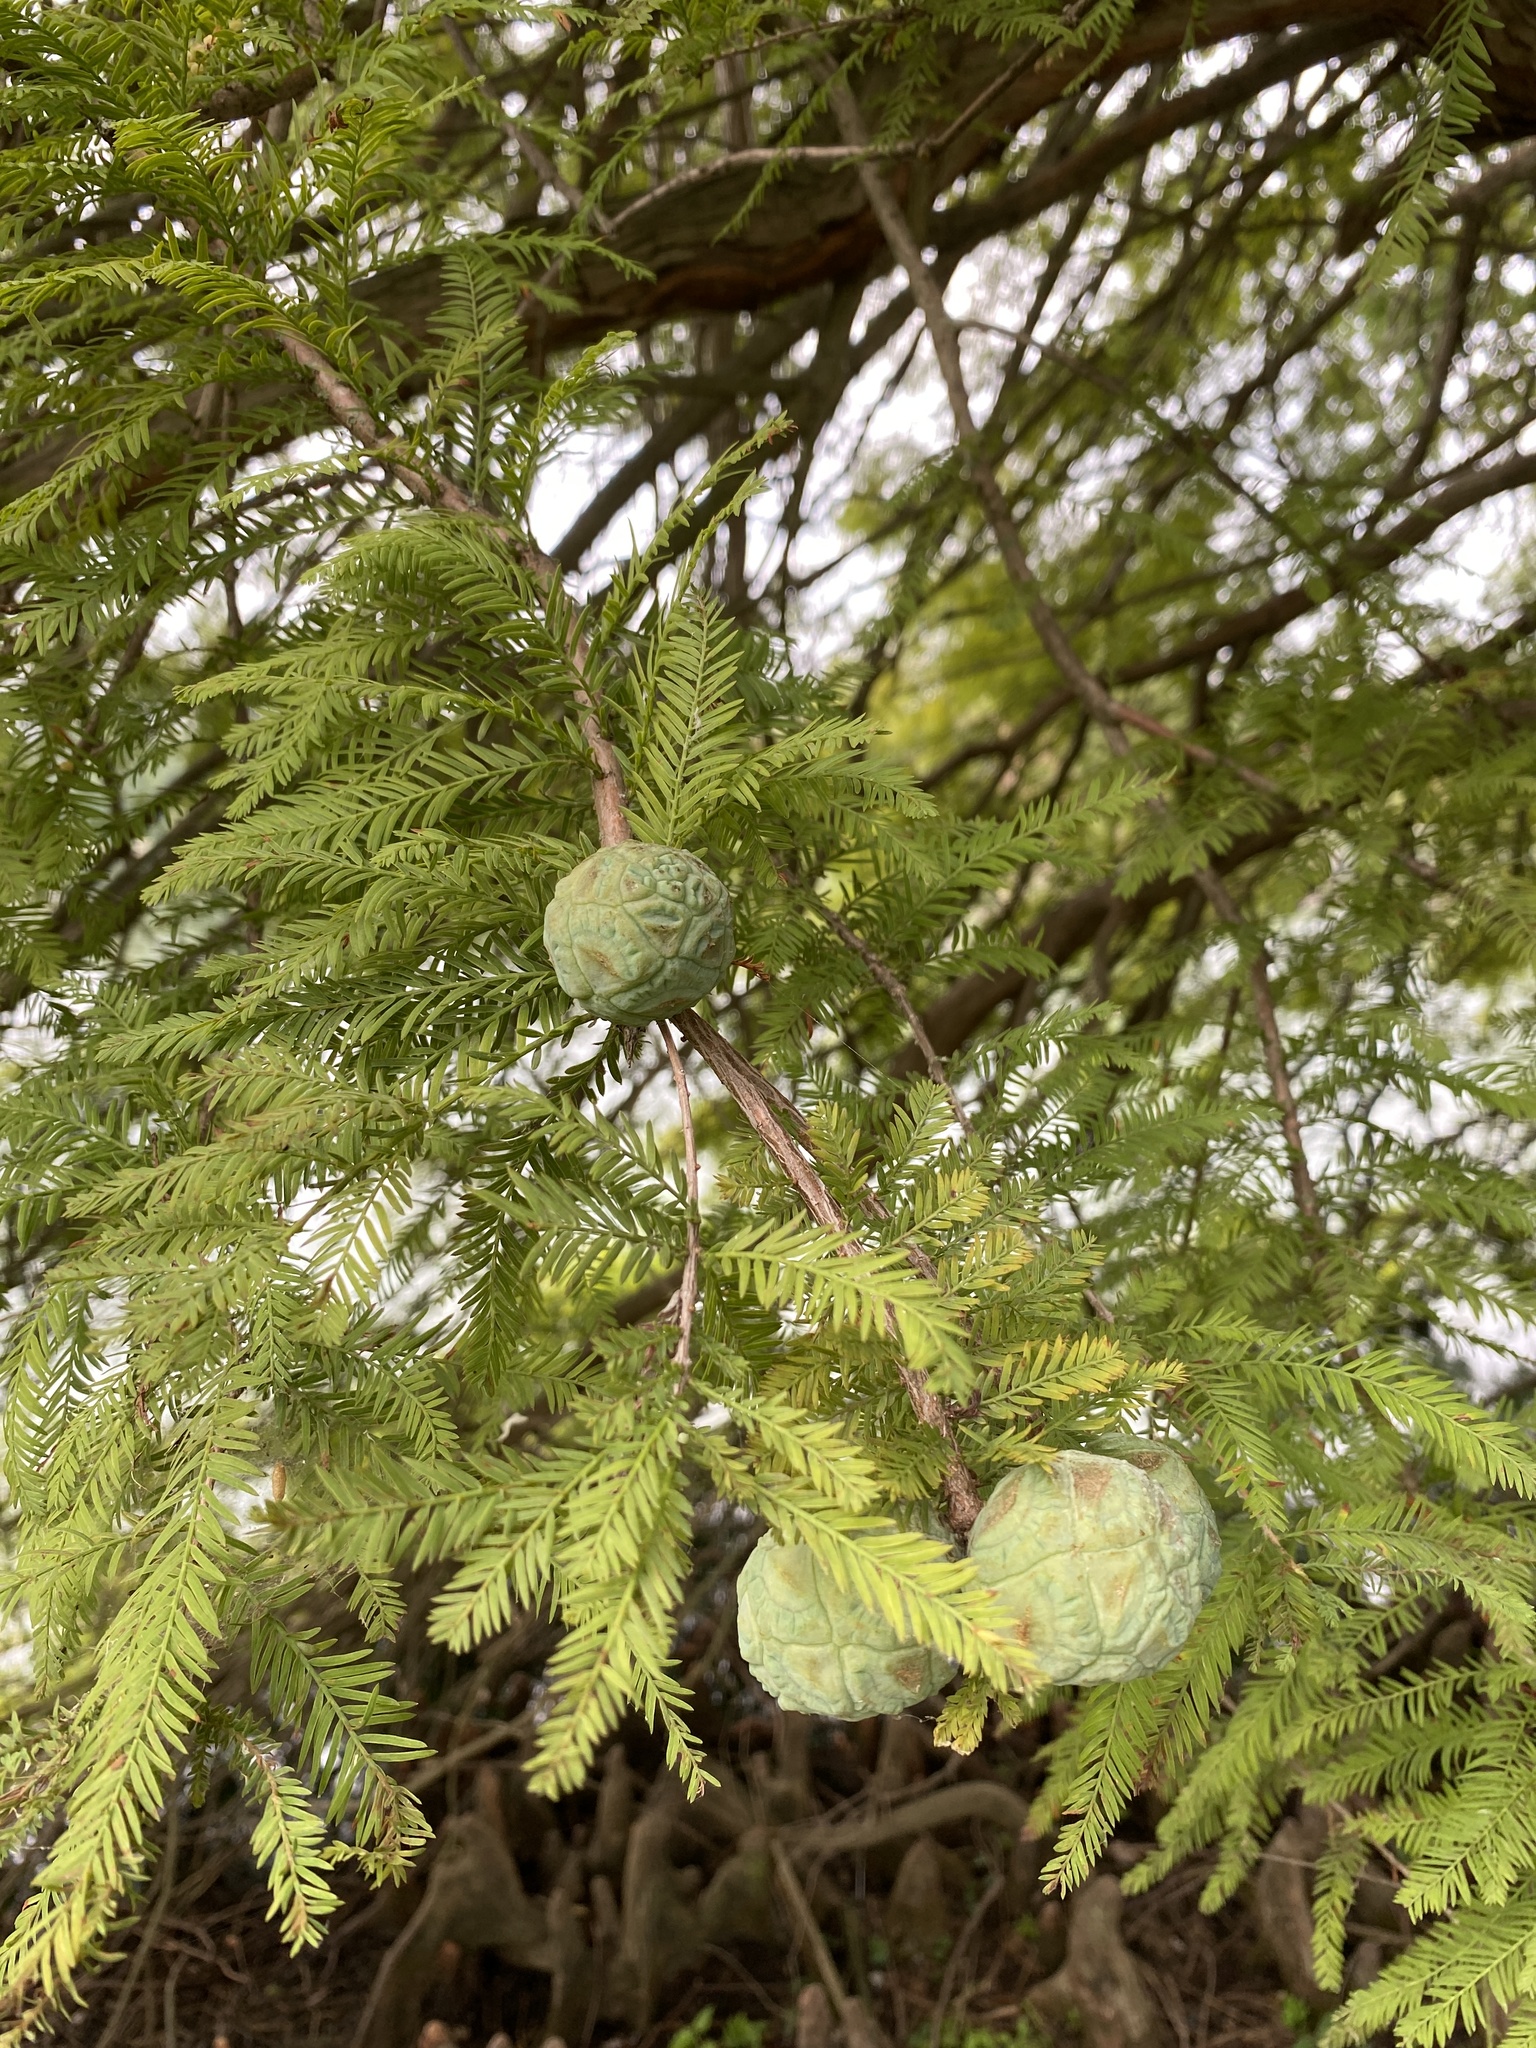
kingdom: Plantae
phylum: Tracheophyta
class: Pinopsida
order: Pinales
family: Cupressaceae
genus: Taxodium
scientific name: Taxodium distichum
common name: Bald cypress
